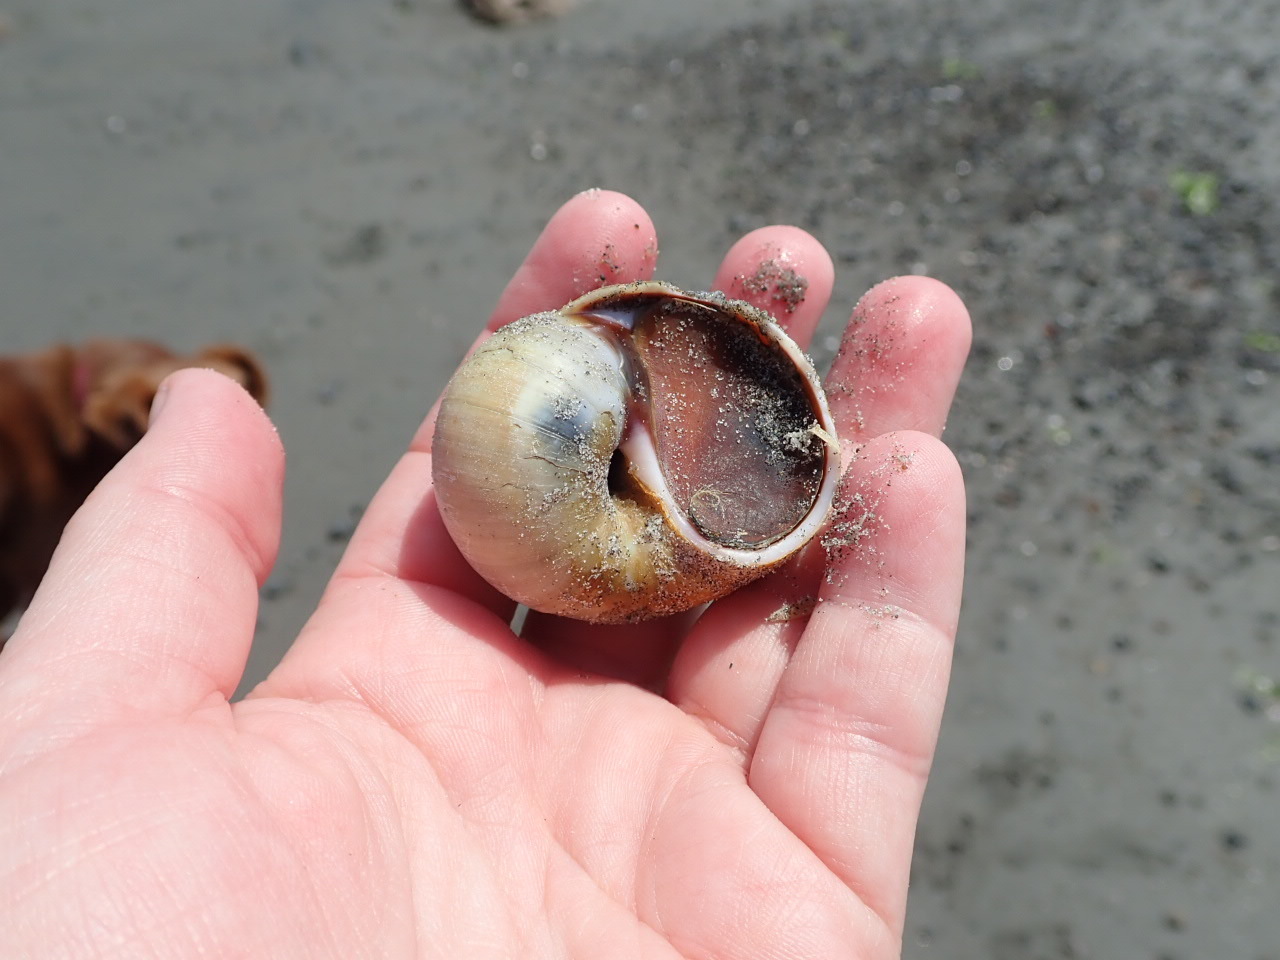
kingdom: Animalia
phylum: Mollusca
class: Gastropoda
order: Littorinimorpha
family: Naticidae
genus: Euspira
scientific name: Euspira heros
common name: Common northern moonsnail
